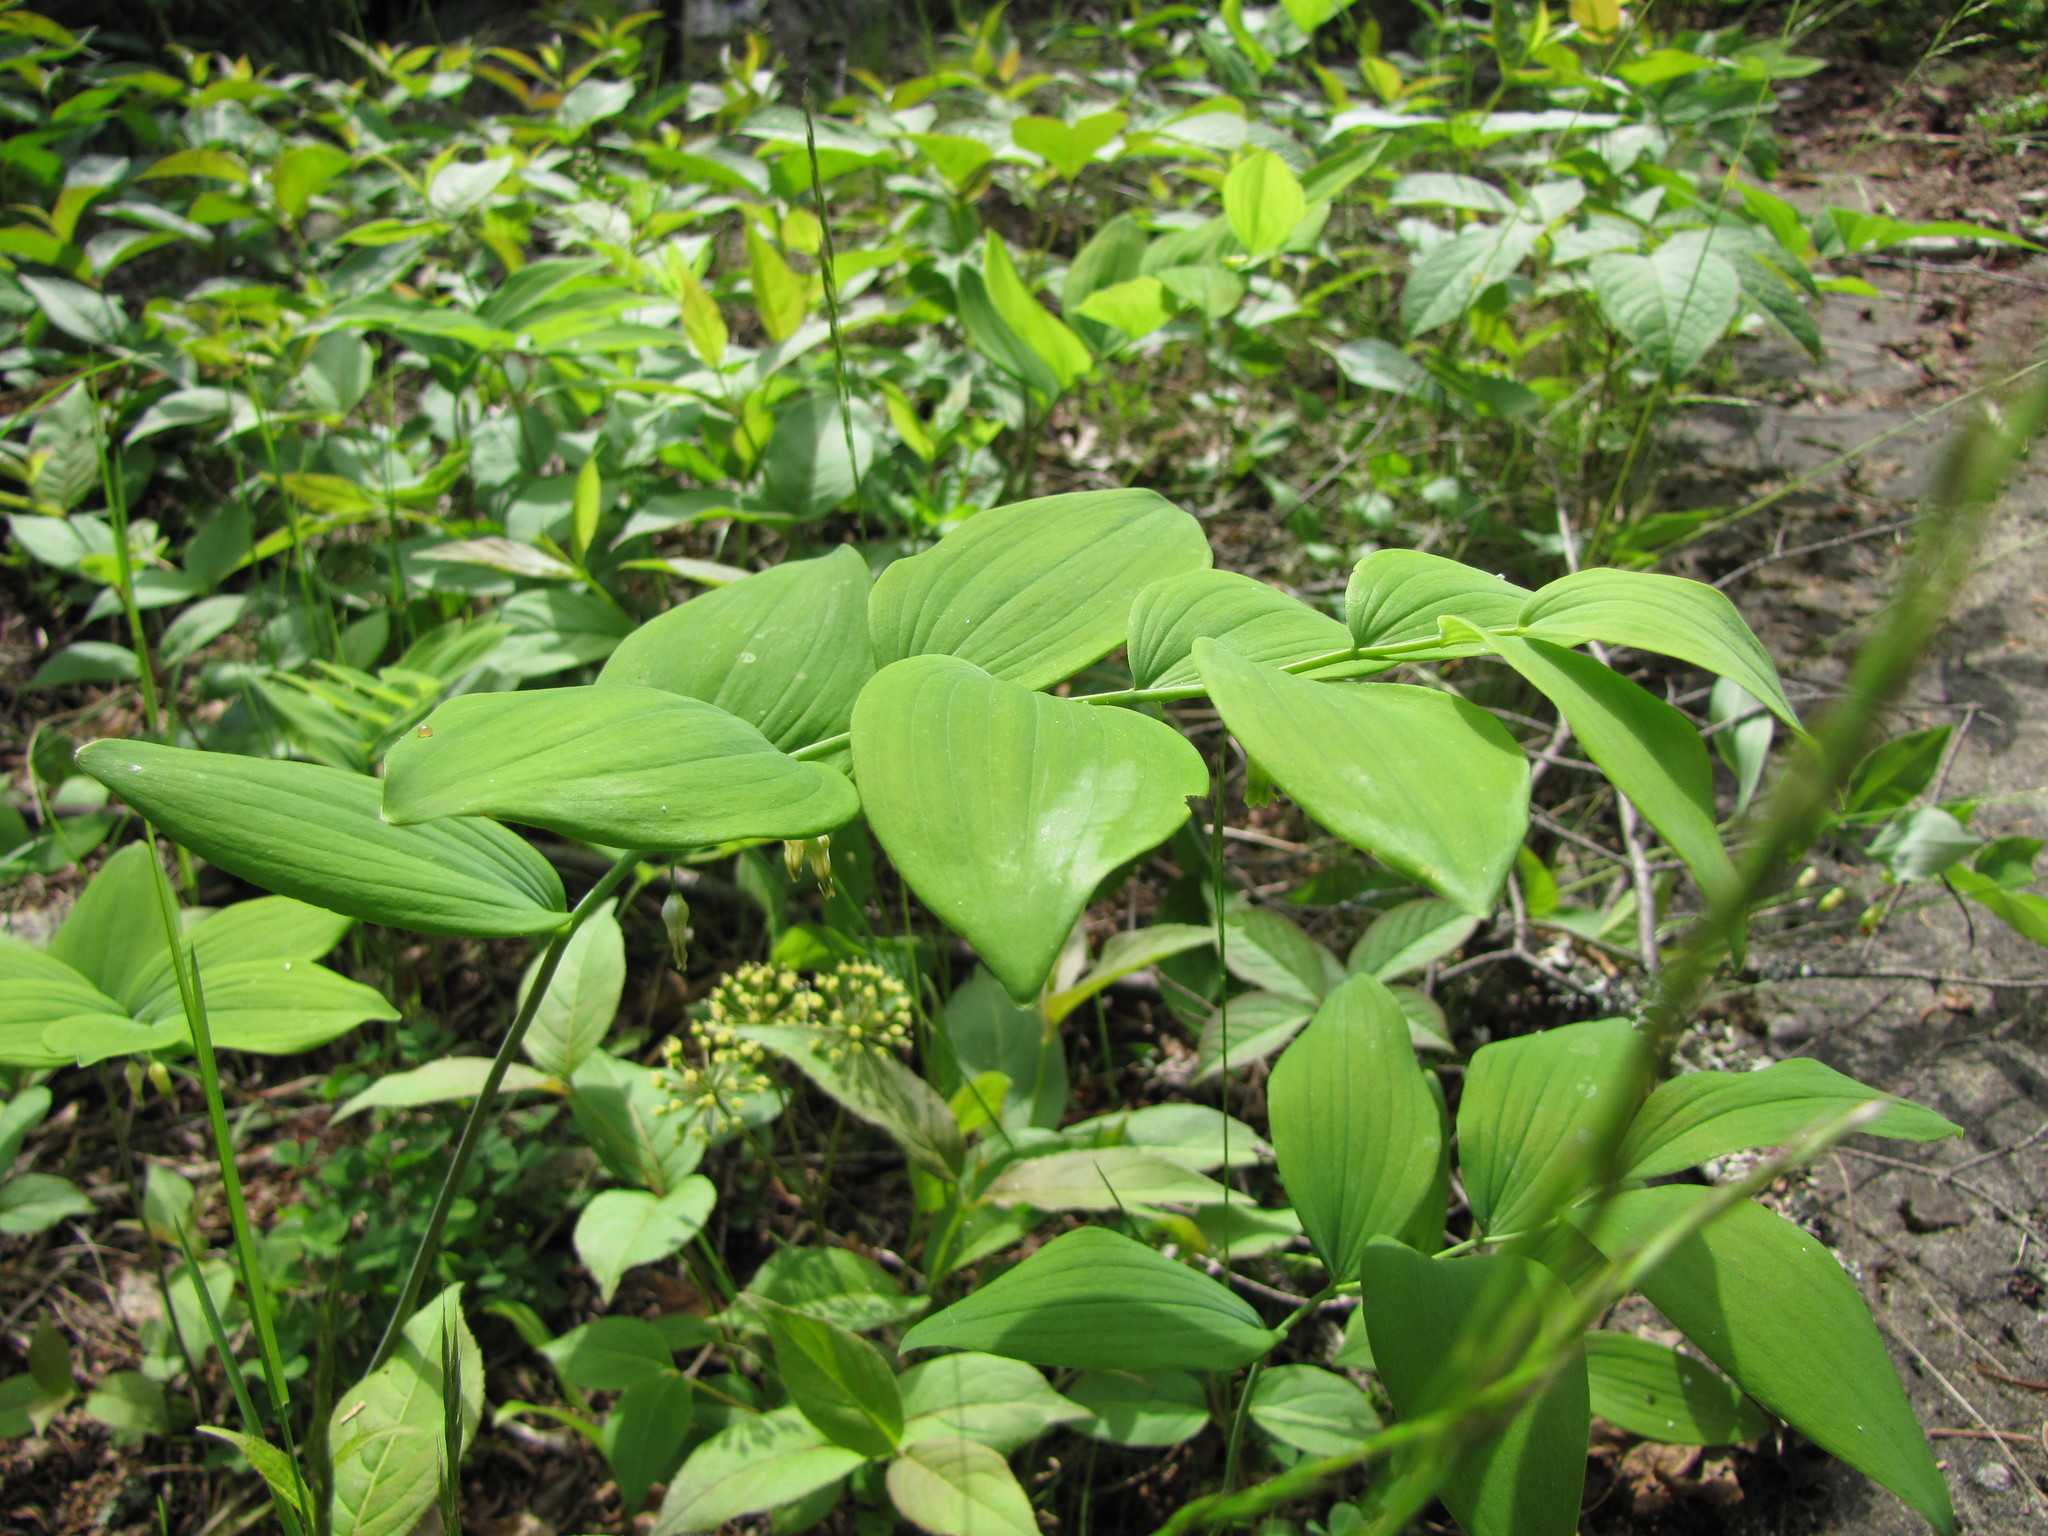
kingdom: Plantae
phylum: Tracheophyta
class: Liliopsida
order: Asparagales
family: Asparagaceae
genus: Polygonatum
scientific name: Polygonatum pubescens
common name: Downy solomon's seal
